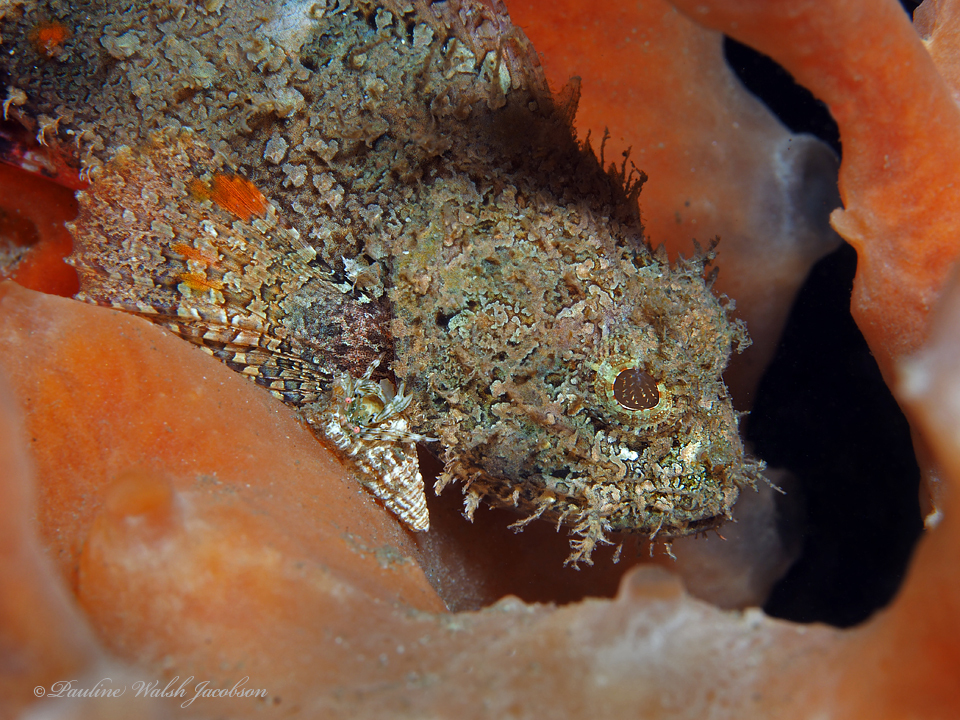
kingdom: Animalia
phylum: Chordata
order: Scorpaeniformes
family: Scorpaenidae
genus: Scorpaena
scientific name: Scorpaena plumieri
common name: Spotted scorpionfish
